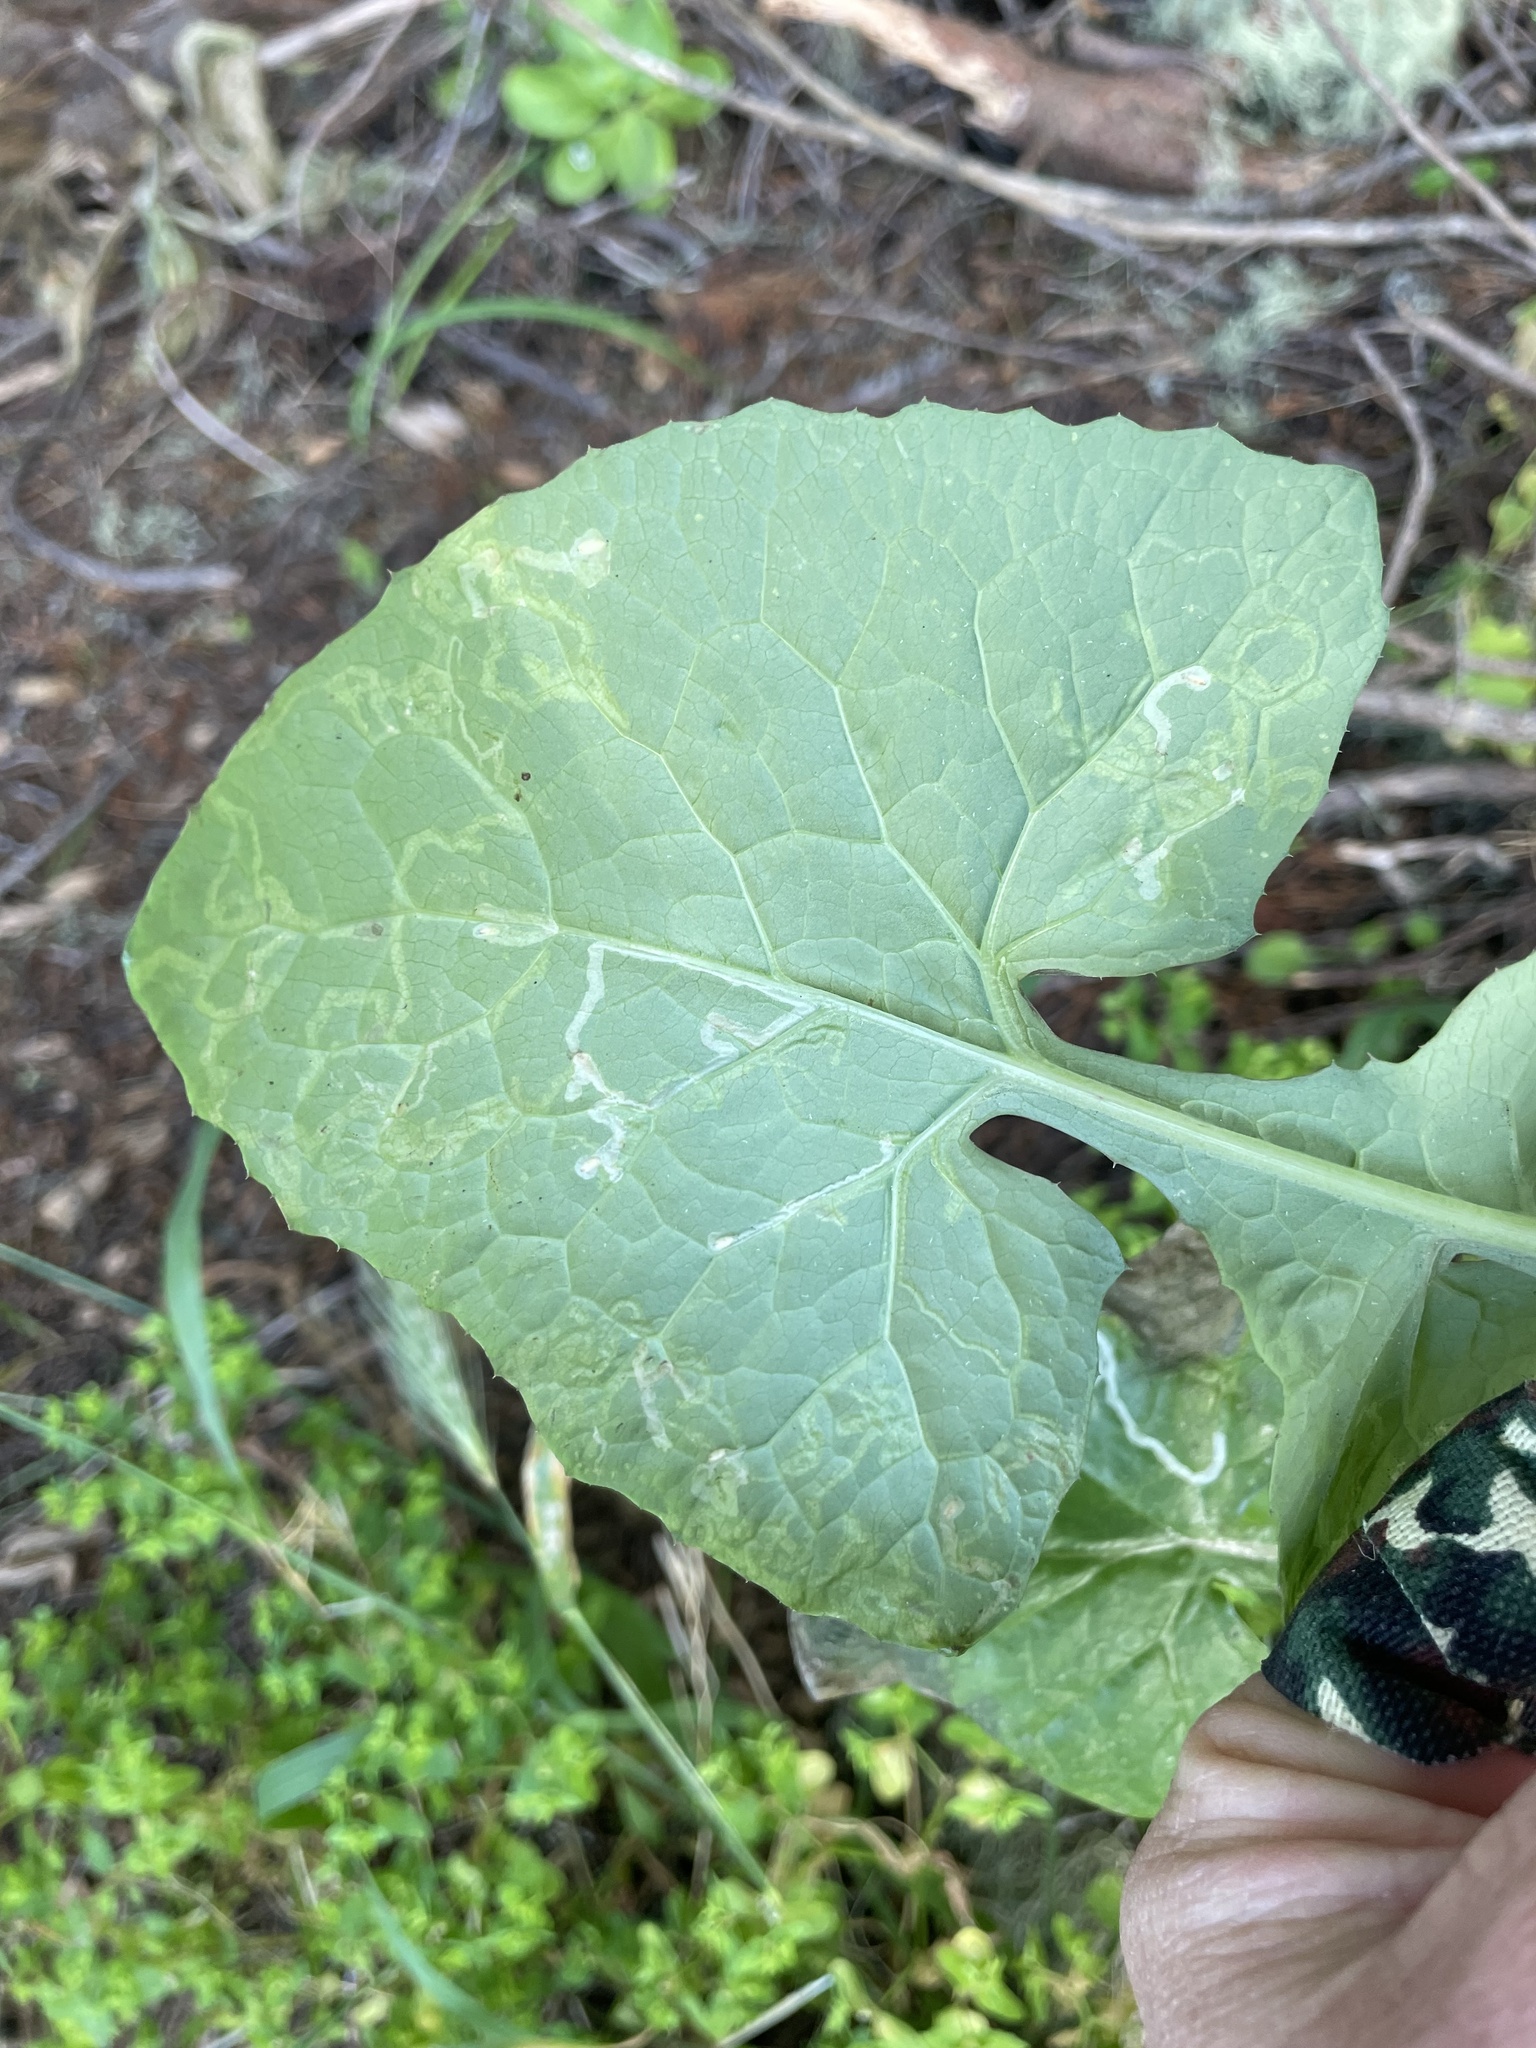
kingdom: Animalia
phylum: Arthropoda
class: Insecta
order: Diptera
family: Agromyzidae
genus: Phytomyza
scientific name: Phytomyza syngenesiae
